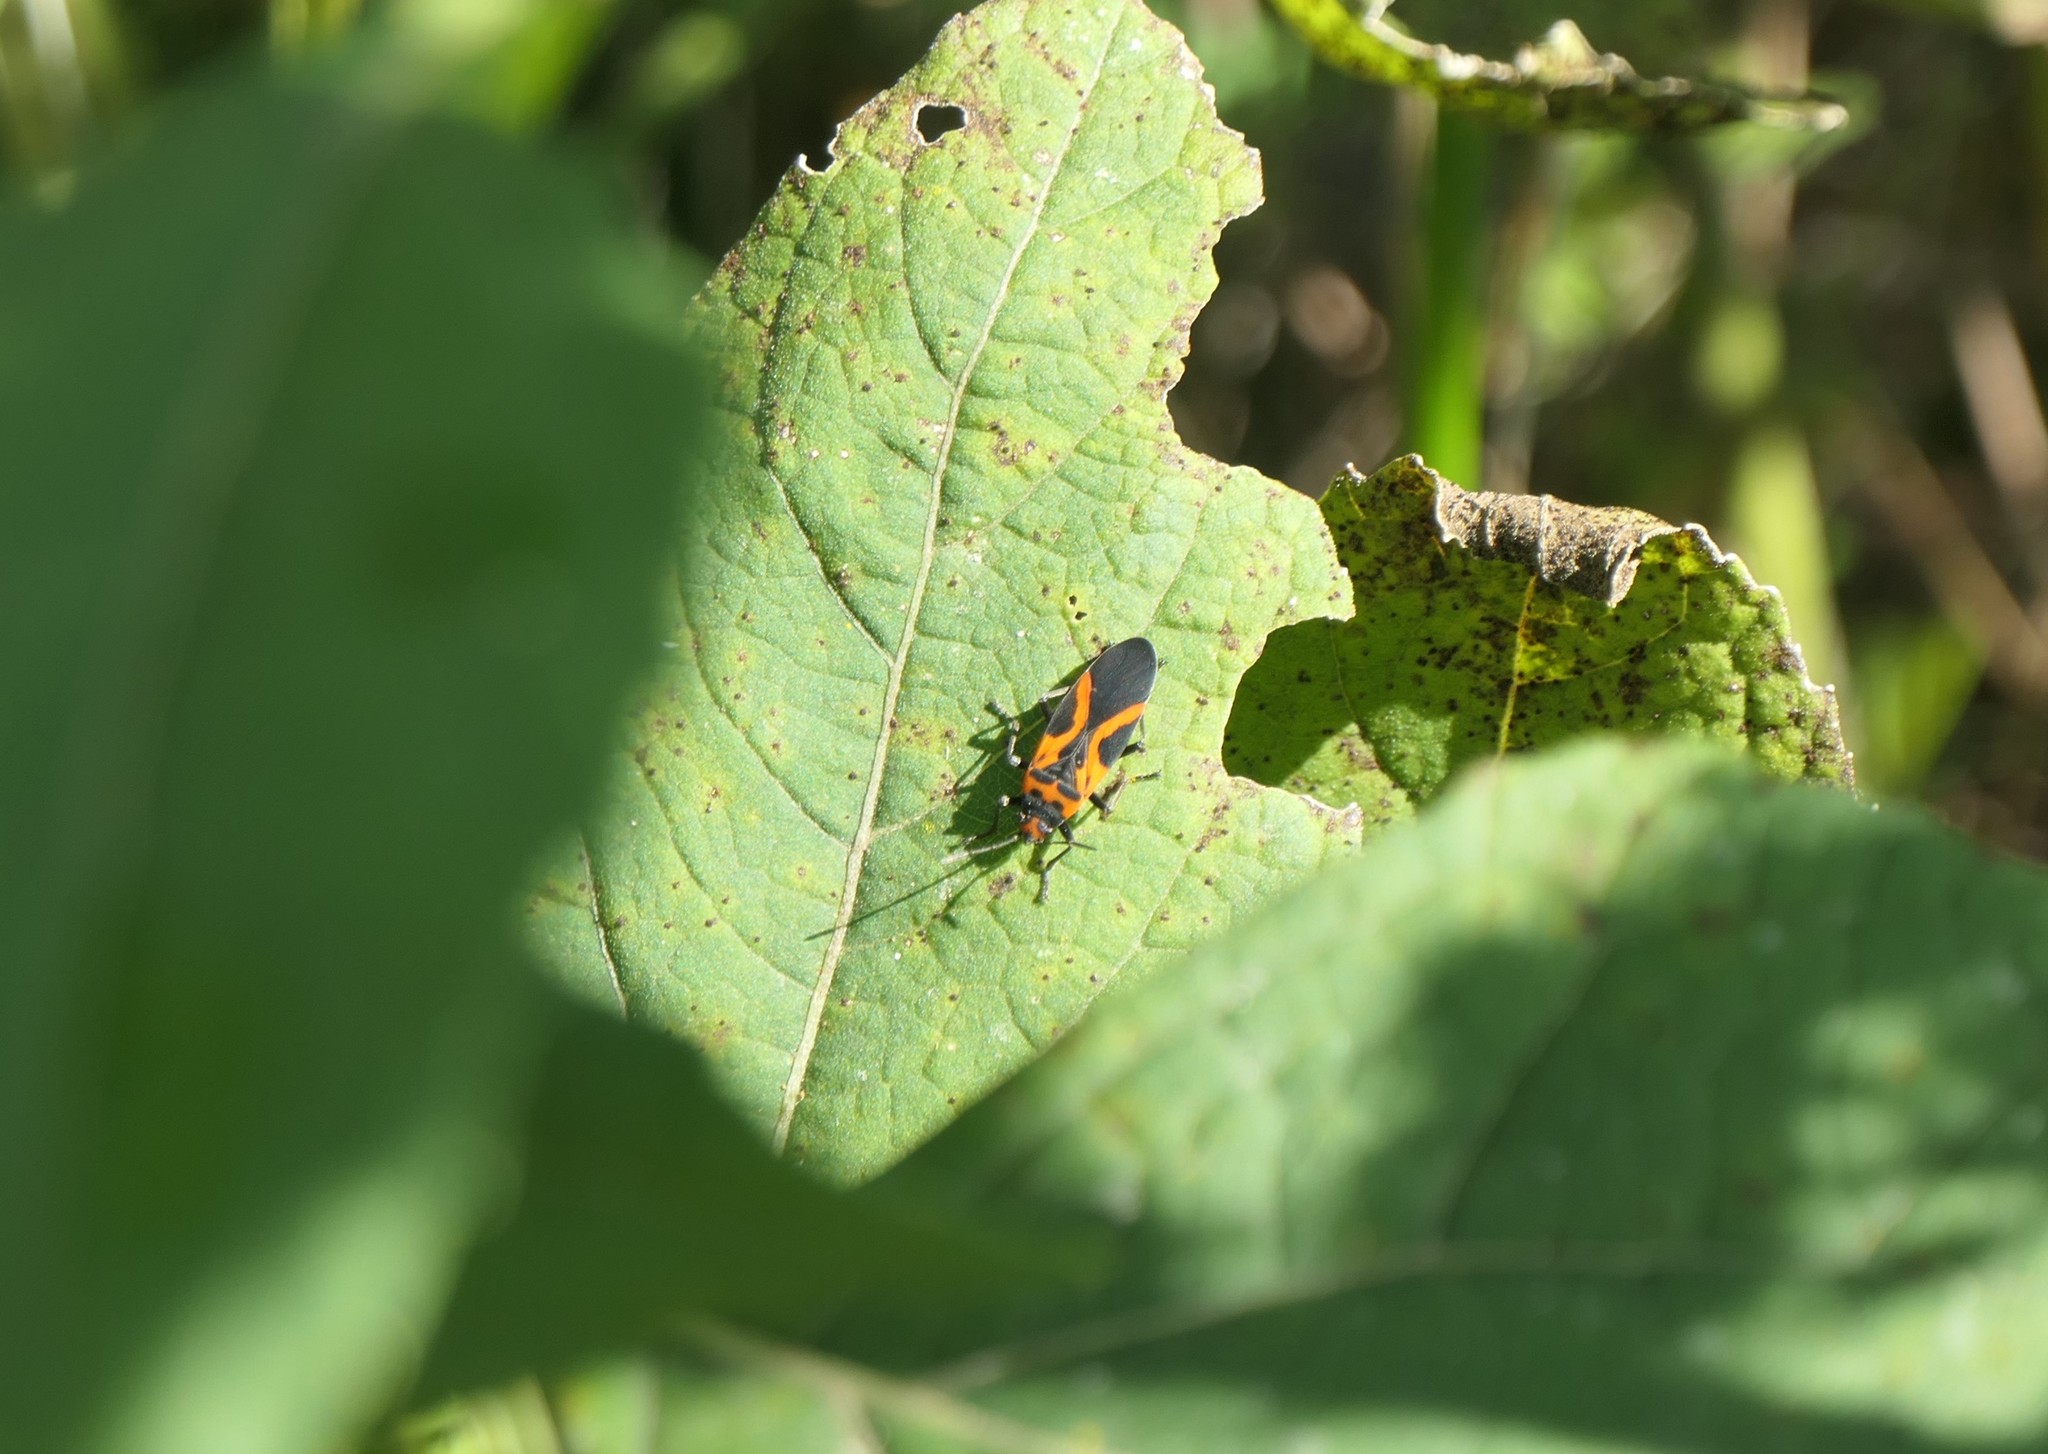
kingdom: Animalia
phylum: Arthropoda
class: Insecta
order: Hemiptera
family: Lygaeidae
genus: Lygaeus
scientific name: Lygaeus turcicus
